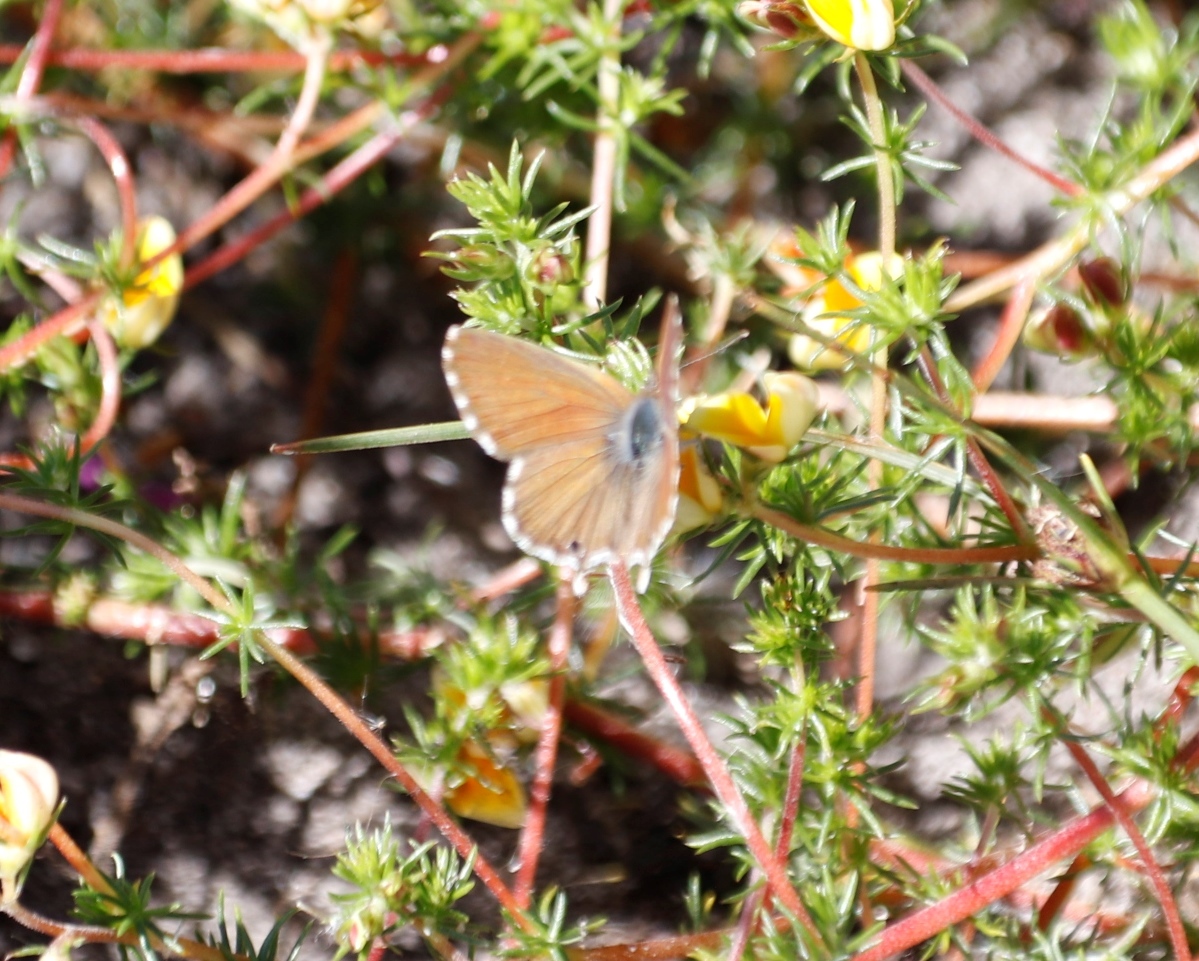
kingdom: Animalia
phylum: Arthropoda
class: Insecta
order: Lepidoptera
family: Lycaenidae
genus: Cacyreus
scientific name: Cacyreus fracta
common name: Water bronze
